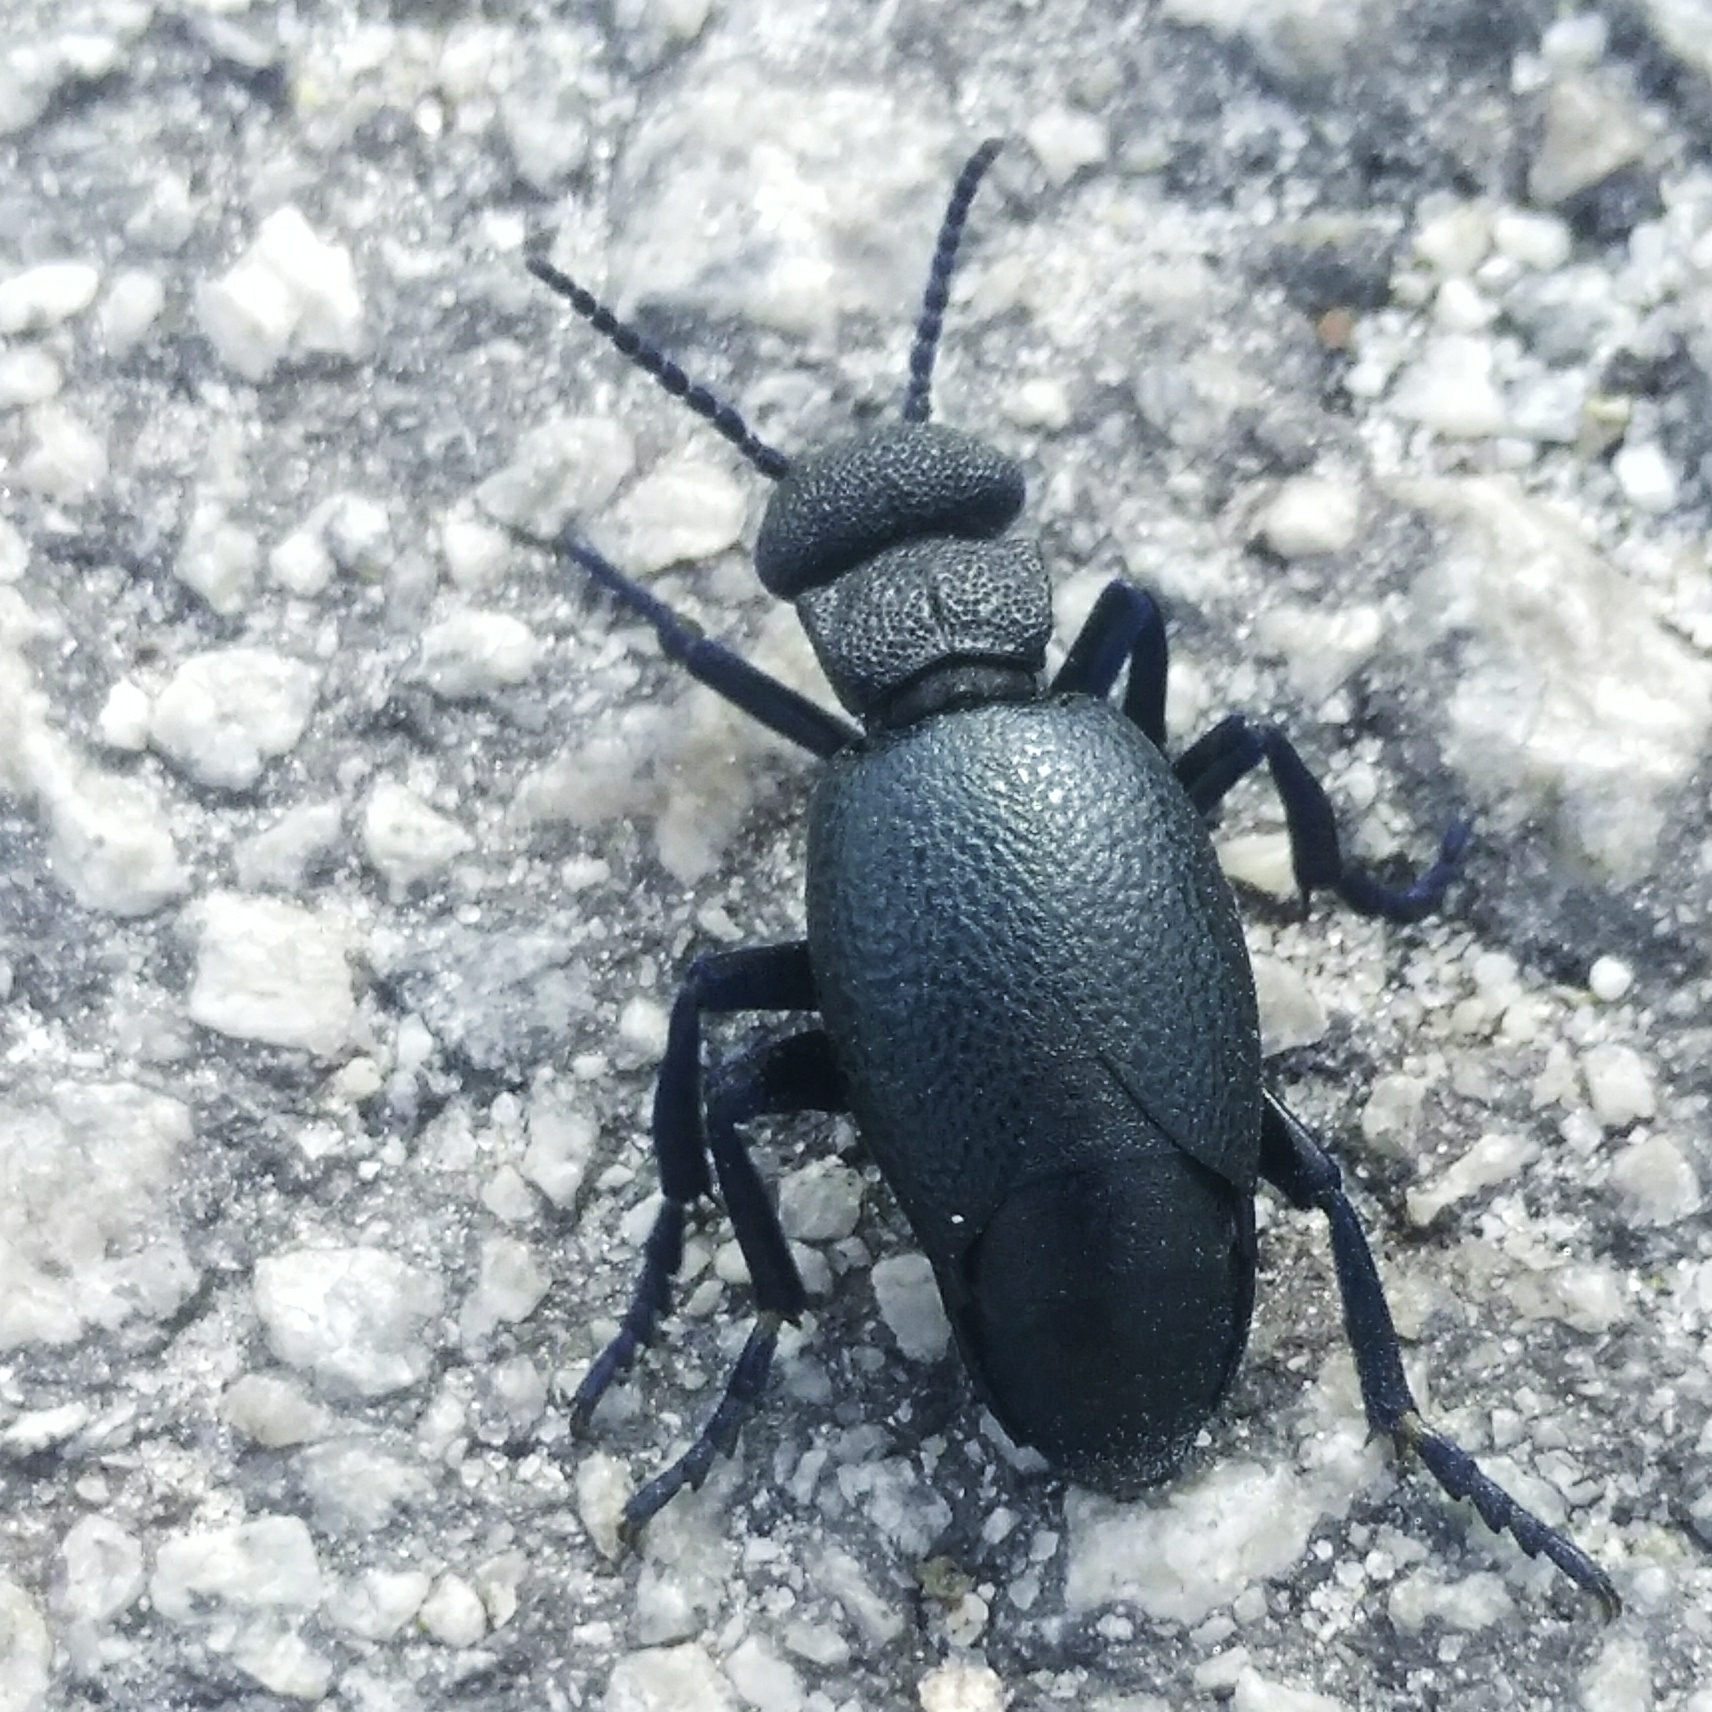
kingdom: Animalia
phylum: Arthropoda
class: Insecta
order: Coleoptera
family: Meloidae
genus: Meloe
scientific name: Meloe cicatricosus
